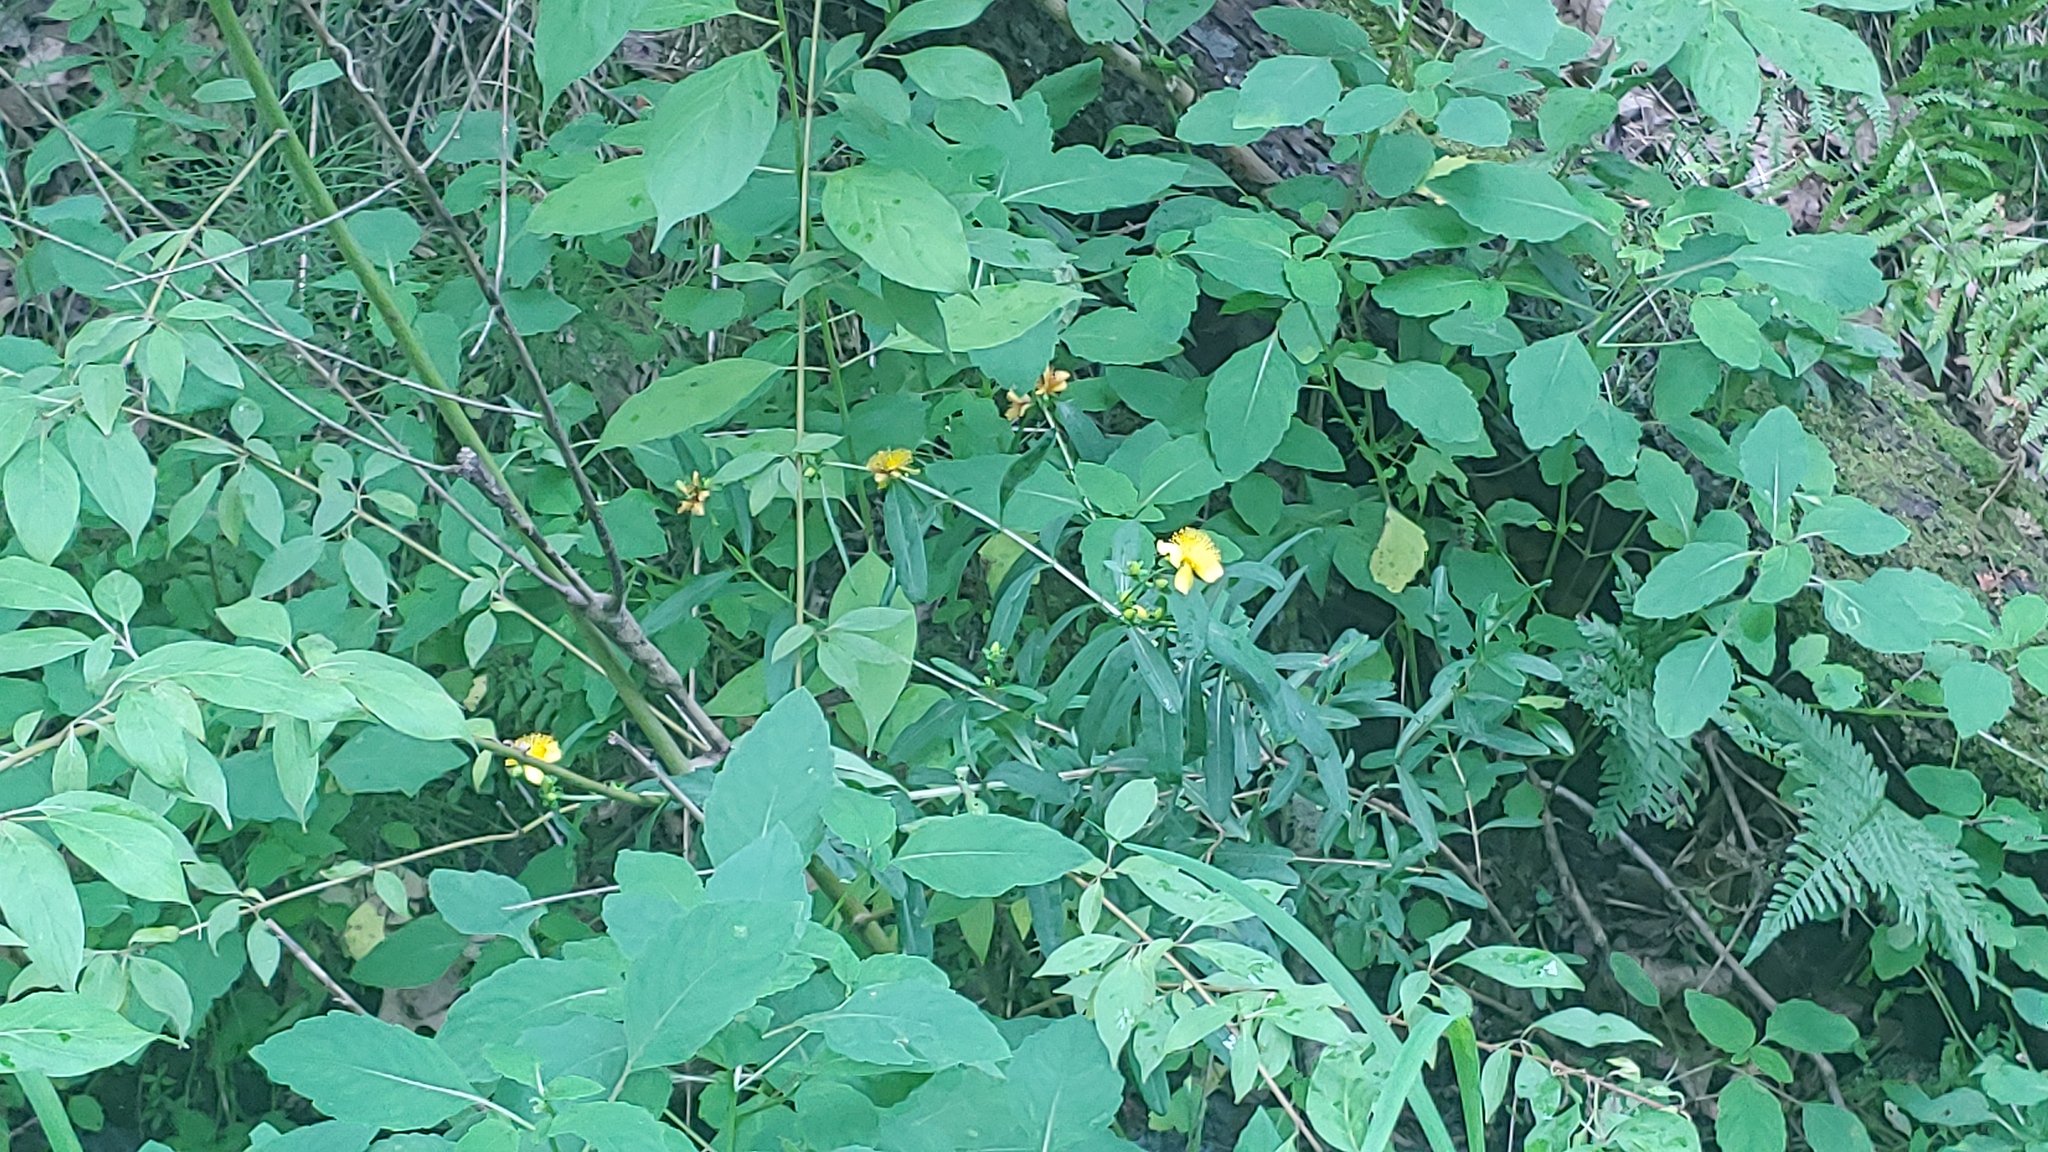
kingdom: Plantae
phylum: Tracheophyta
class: Magnoliopsida
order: Malpighiales
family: Hypericaceae
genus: Hypericum
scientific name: Hypericum prolificum
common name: Shrubby st. john's-wort
